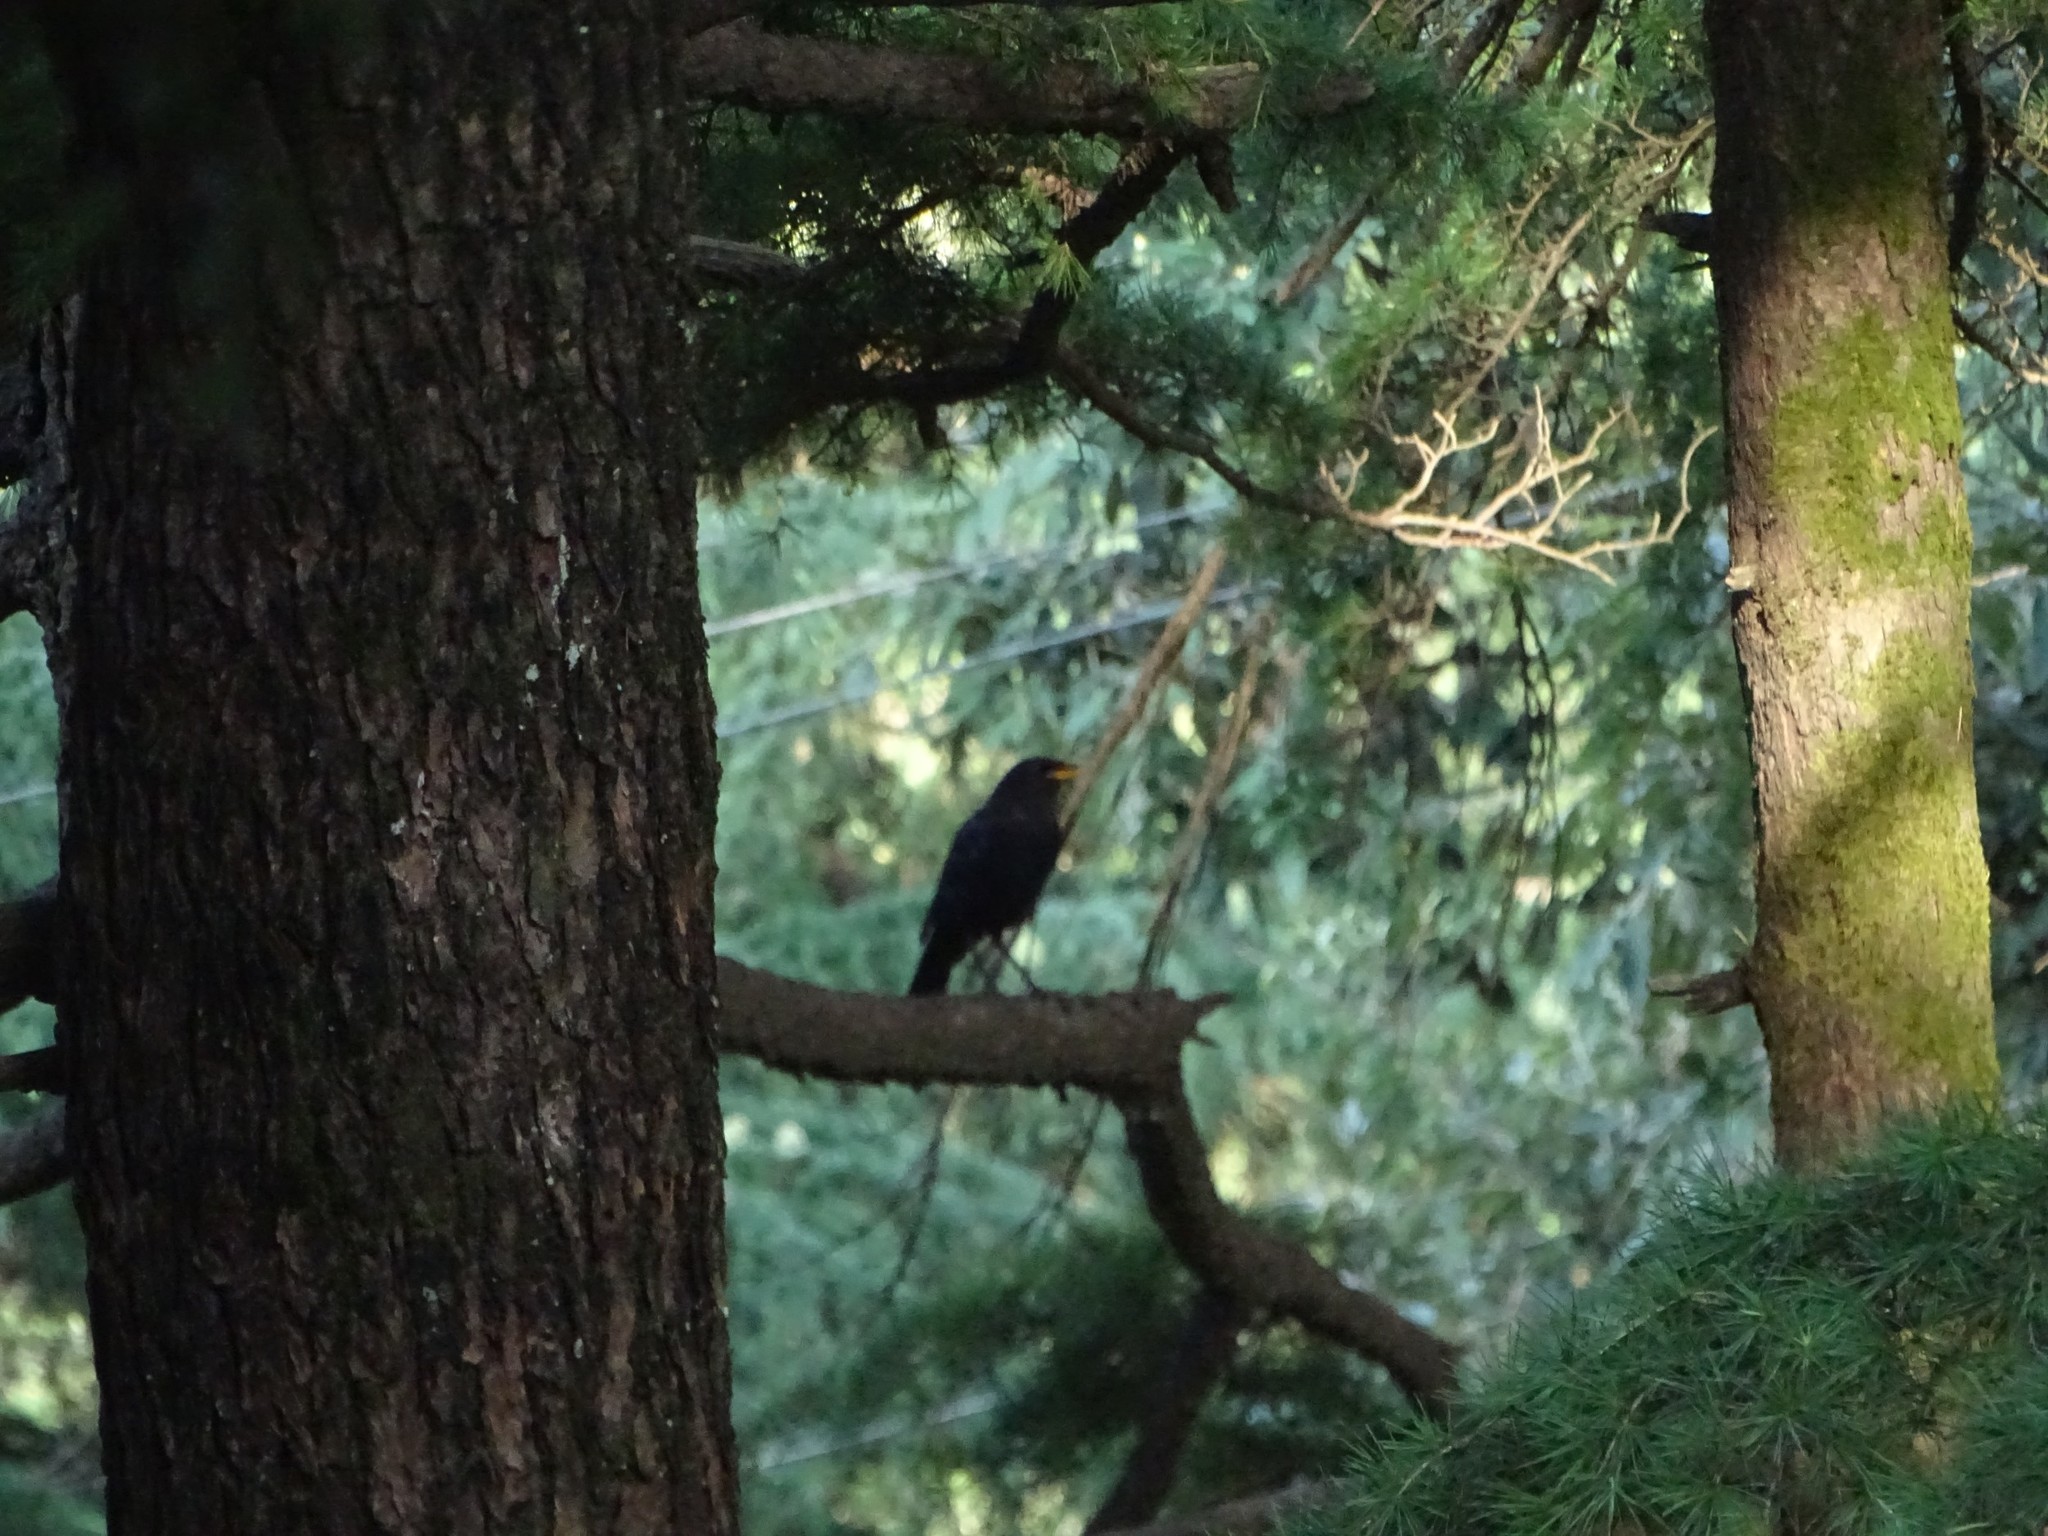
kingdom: Animalia
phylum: Chordata
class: Aves
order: Passeriformes
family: Muscicapidae
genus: Myophonus
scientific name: Myophonus caeruleus
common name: Blue whistling-thrush
